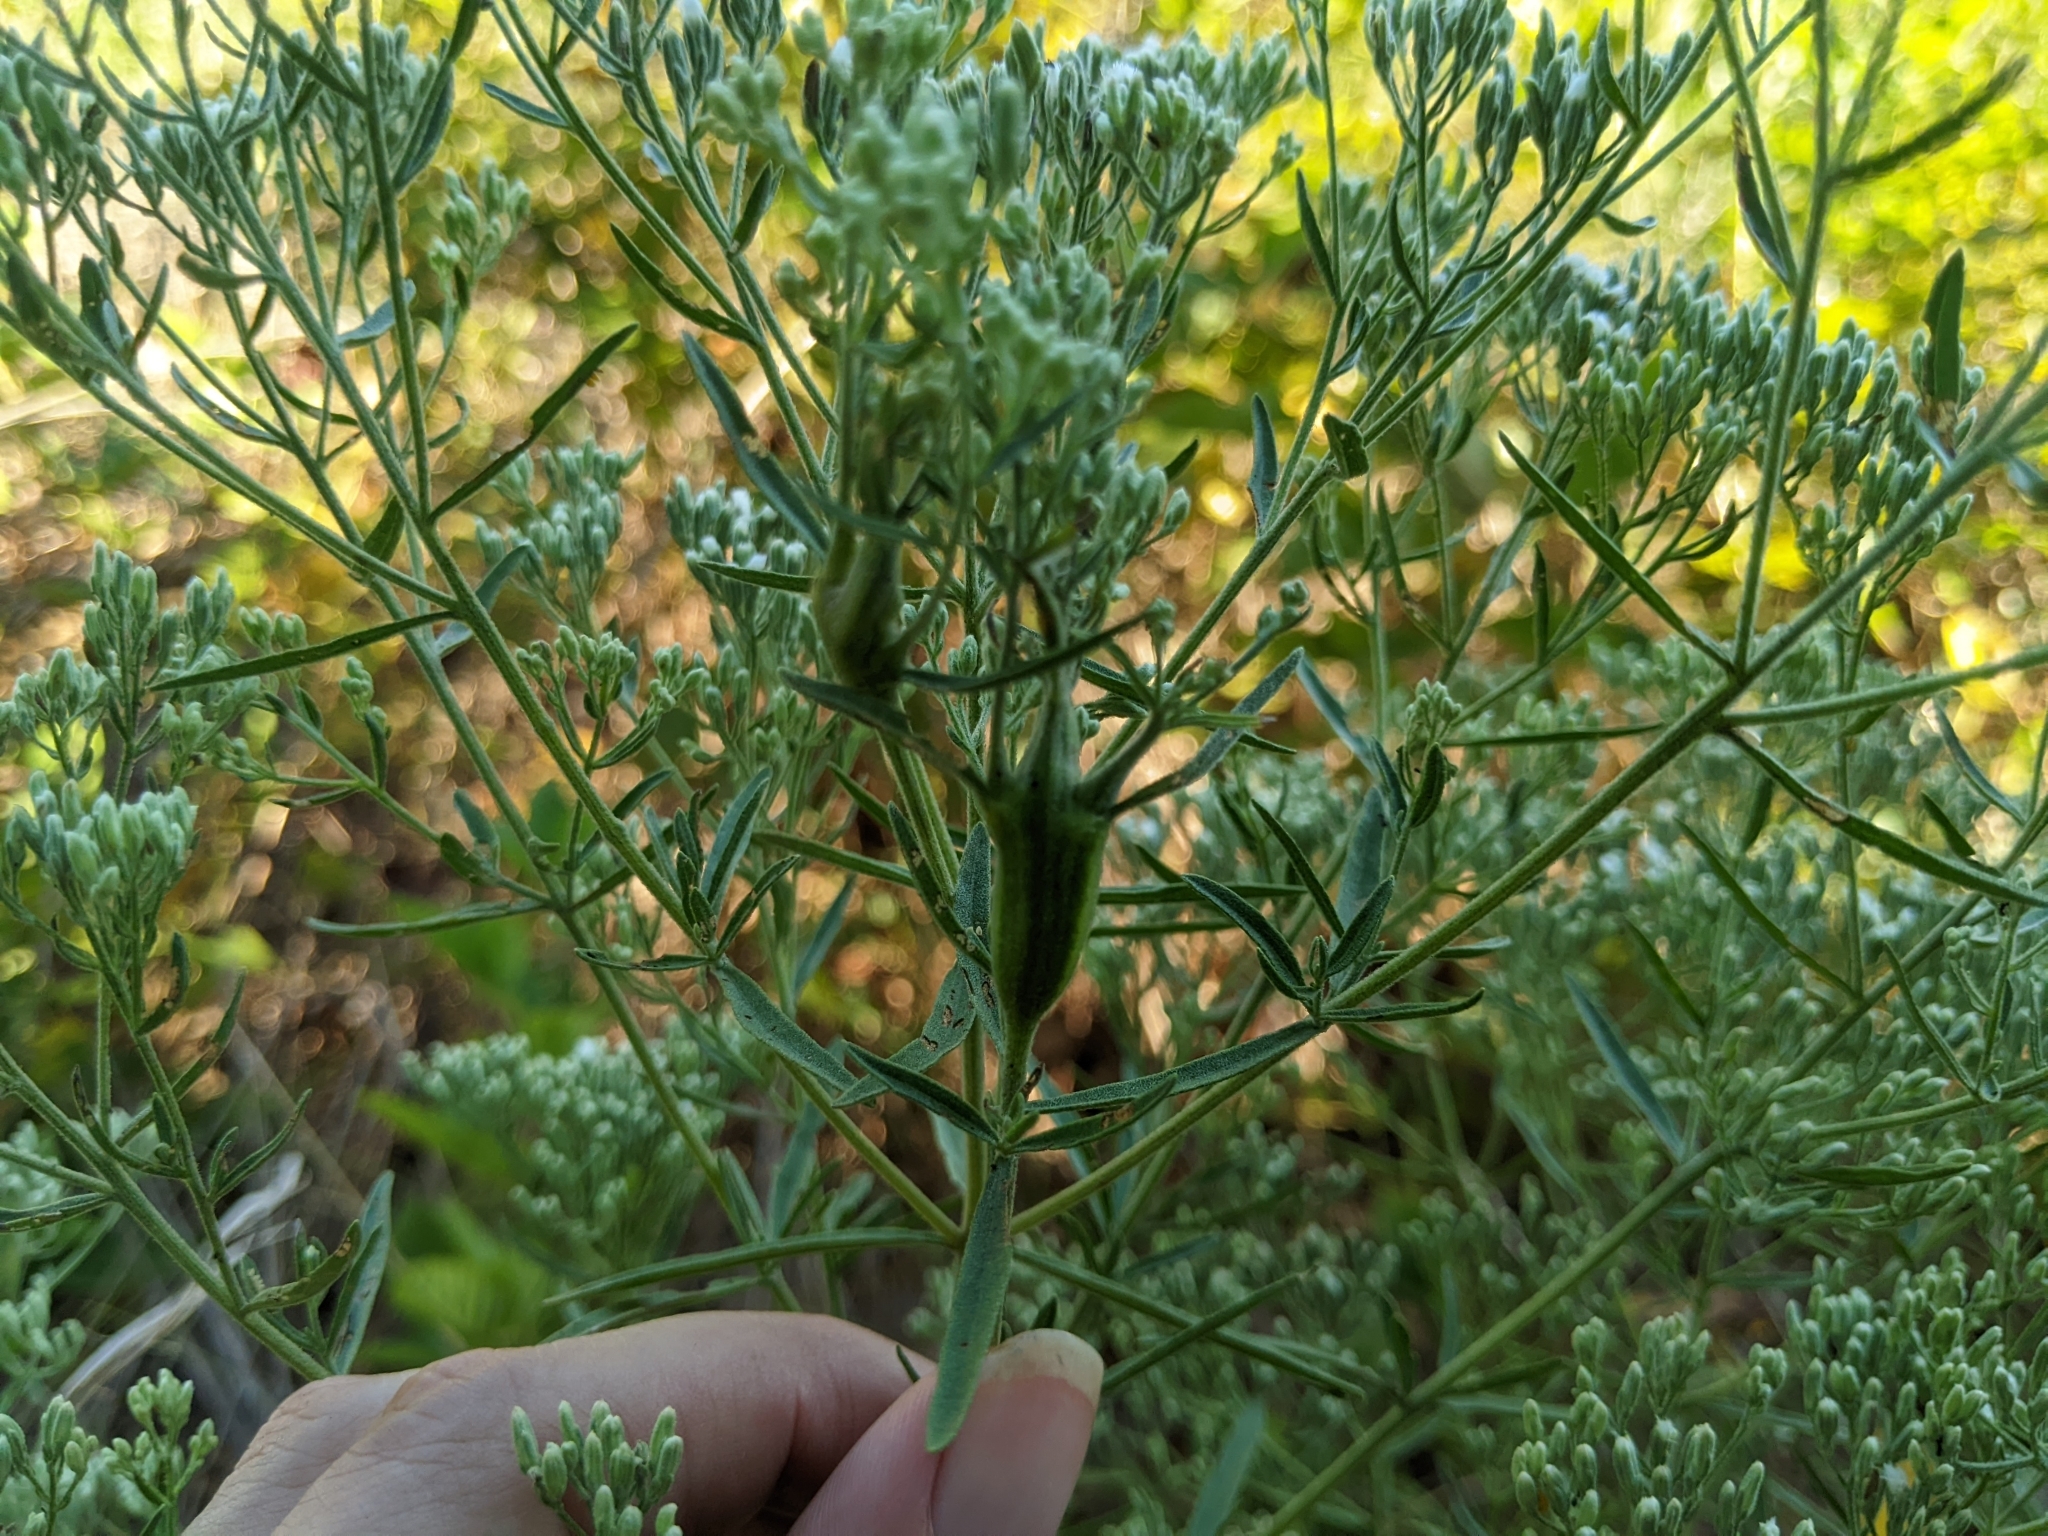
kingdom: Plantae
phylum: Tracheophyta
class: Magnoliopsida
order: Asterales
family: Asteraceae
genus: Eupatorium
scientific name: Eupatorium hyssopifolium
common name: Hyssop-leaf thoroughwort
